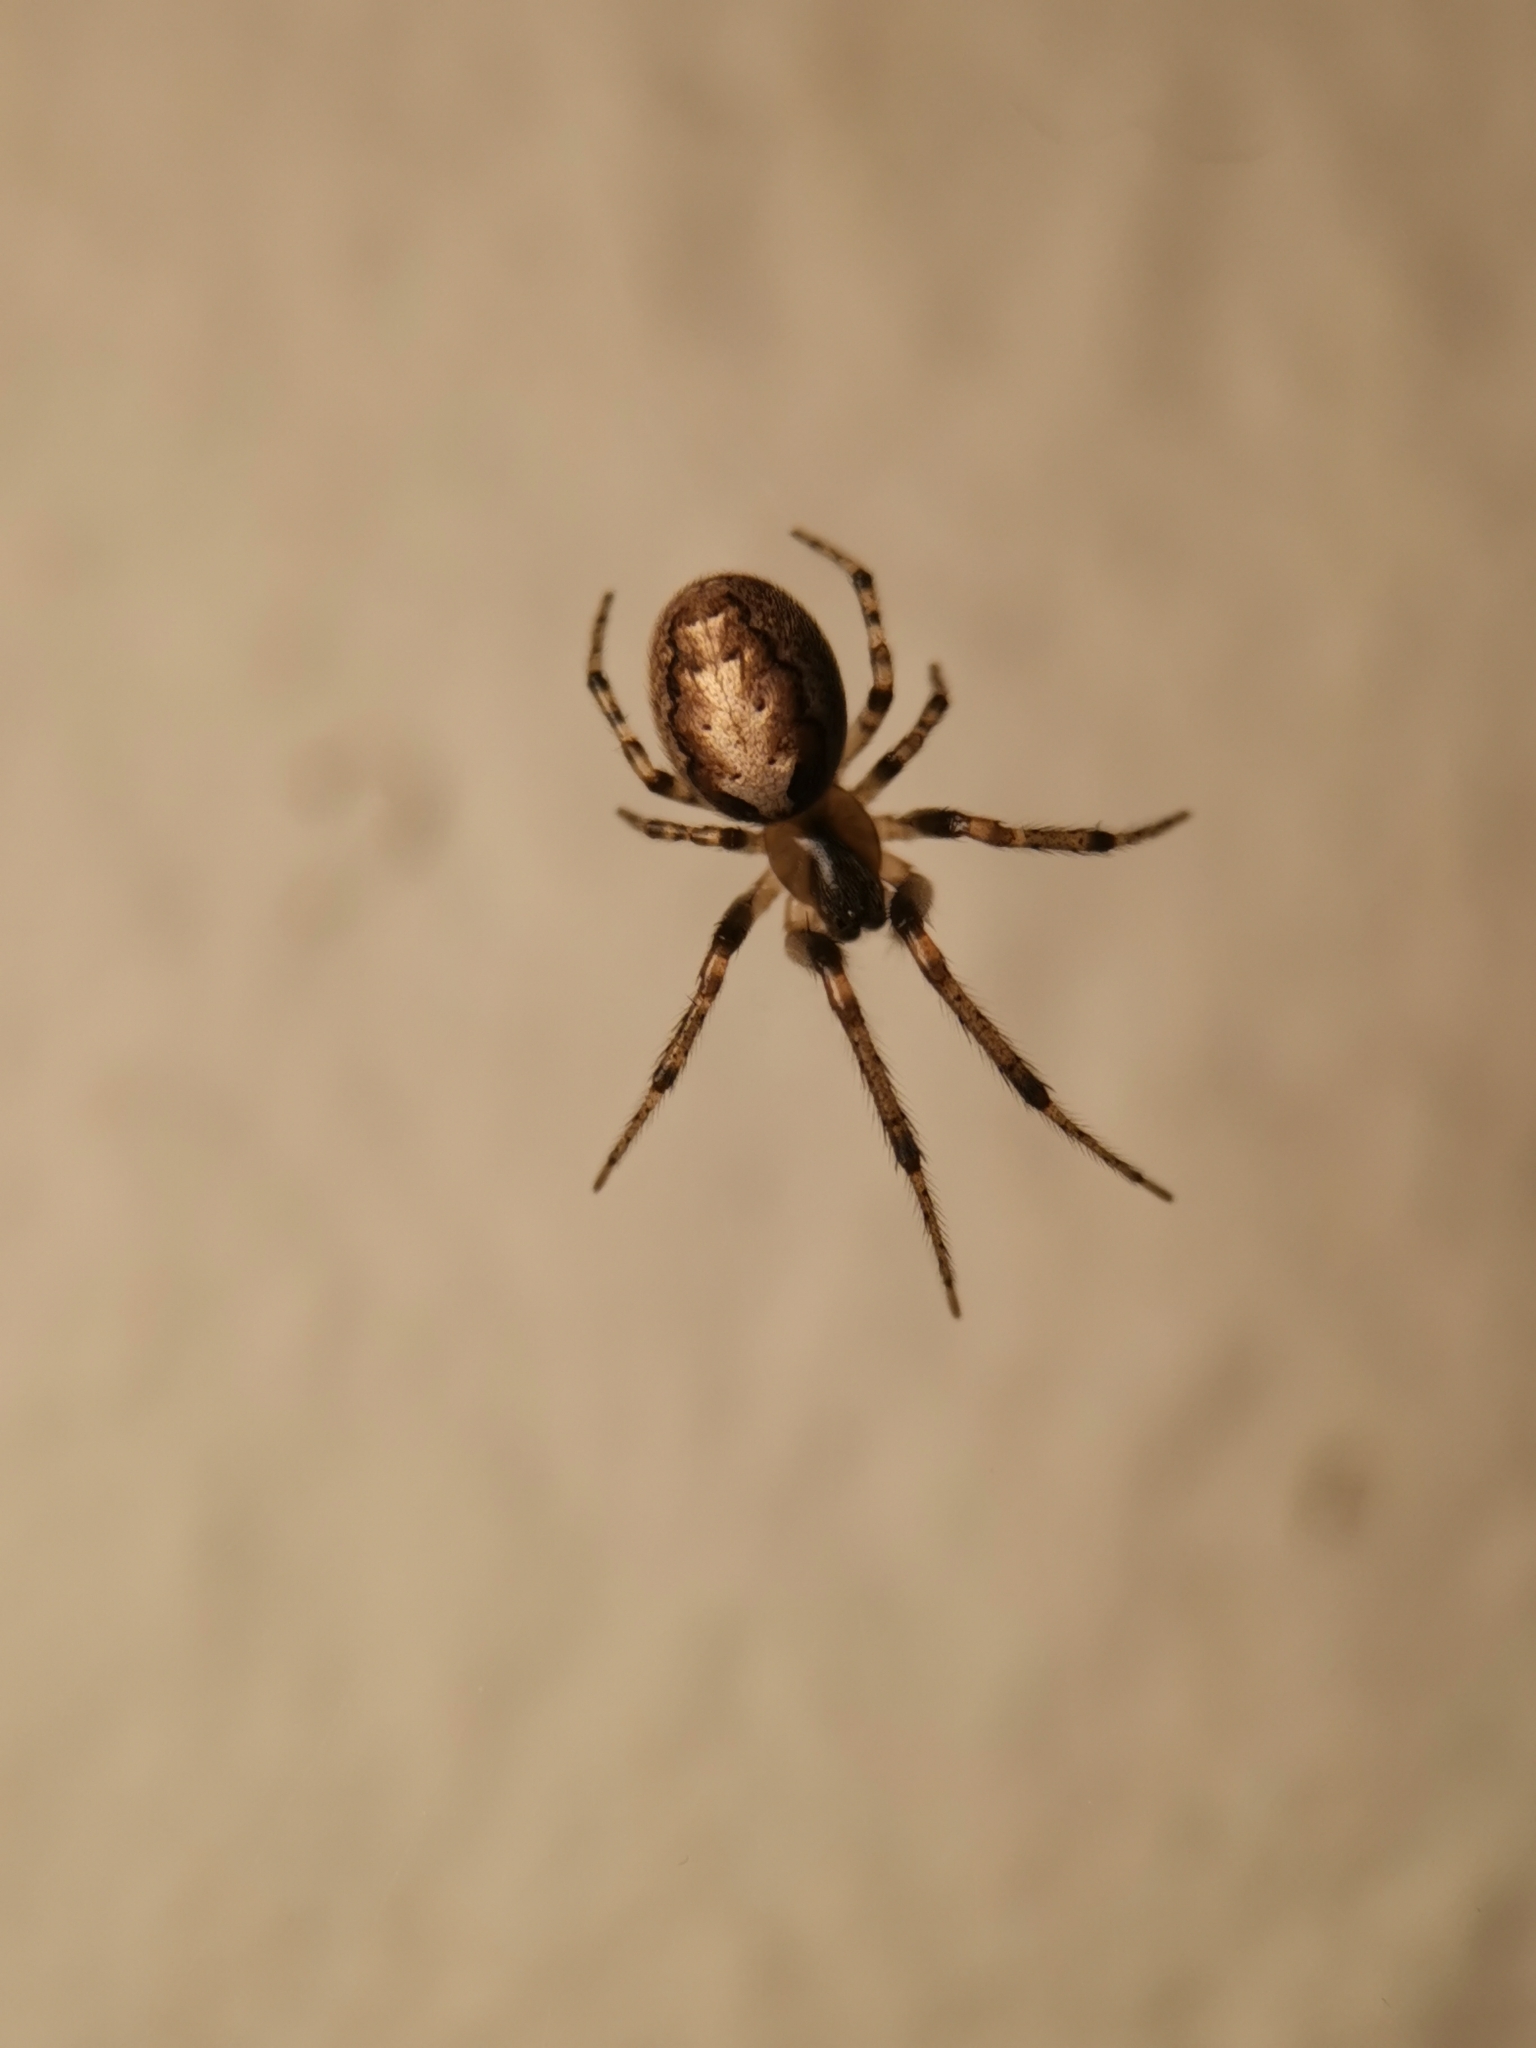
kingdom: Animalia
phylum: Arthropoda
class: Arachnida
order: Araneae
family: Araneidae
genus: Zygiella
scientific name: Zygiella x-notata
